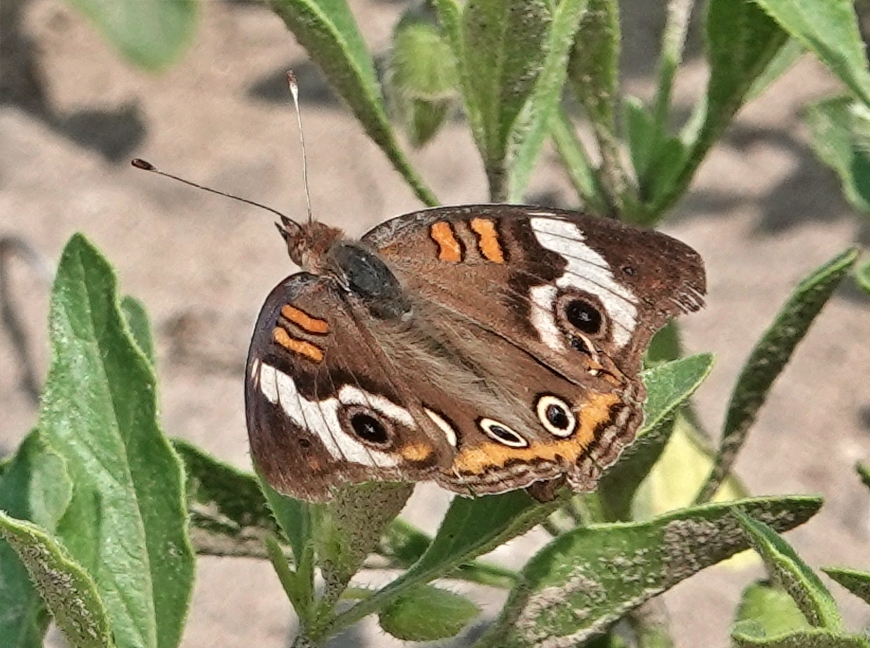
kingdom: Animalia
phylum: Arthropoda
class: Insecta
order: Lepidoptera
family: Nymphalidae
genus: Junonia
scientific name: Junonia coenia
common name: Common buckeye
